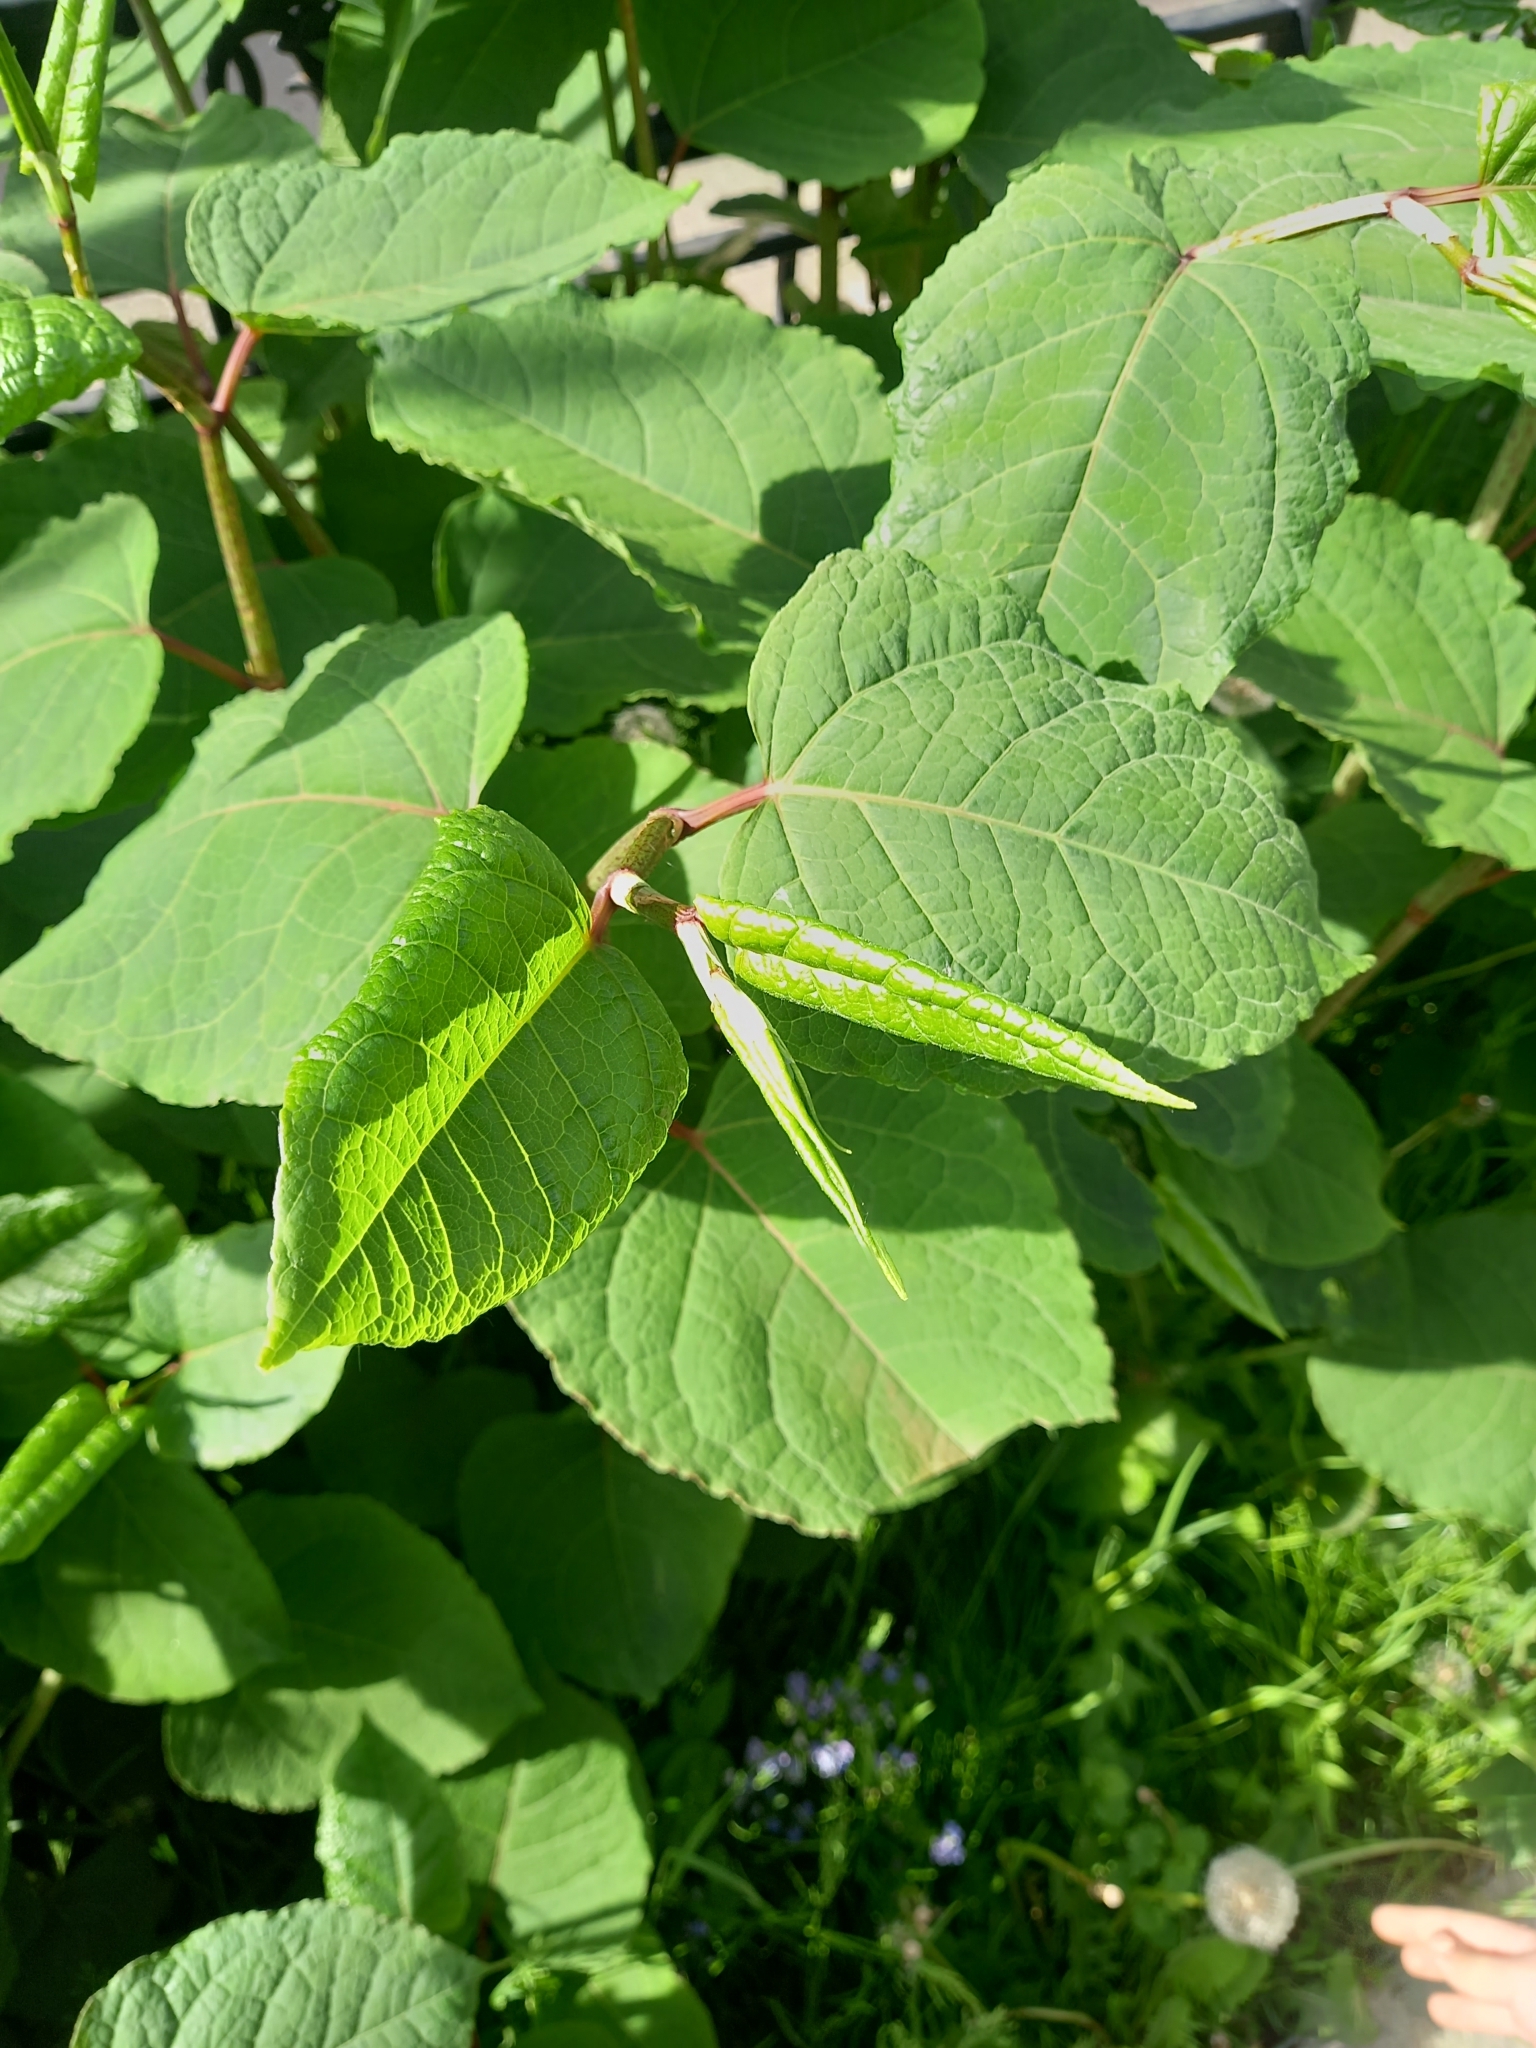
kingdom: Plantae
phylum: Tracheophyta
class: Magnoliopsida
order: Caryophyllales
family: Polygonaceae
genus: Reynoutria
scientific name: Reynoutria bohemica
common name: Bohemian knotweed
